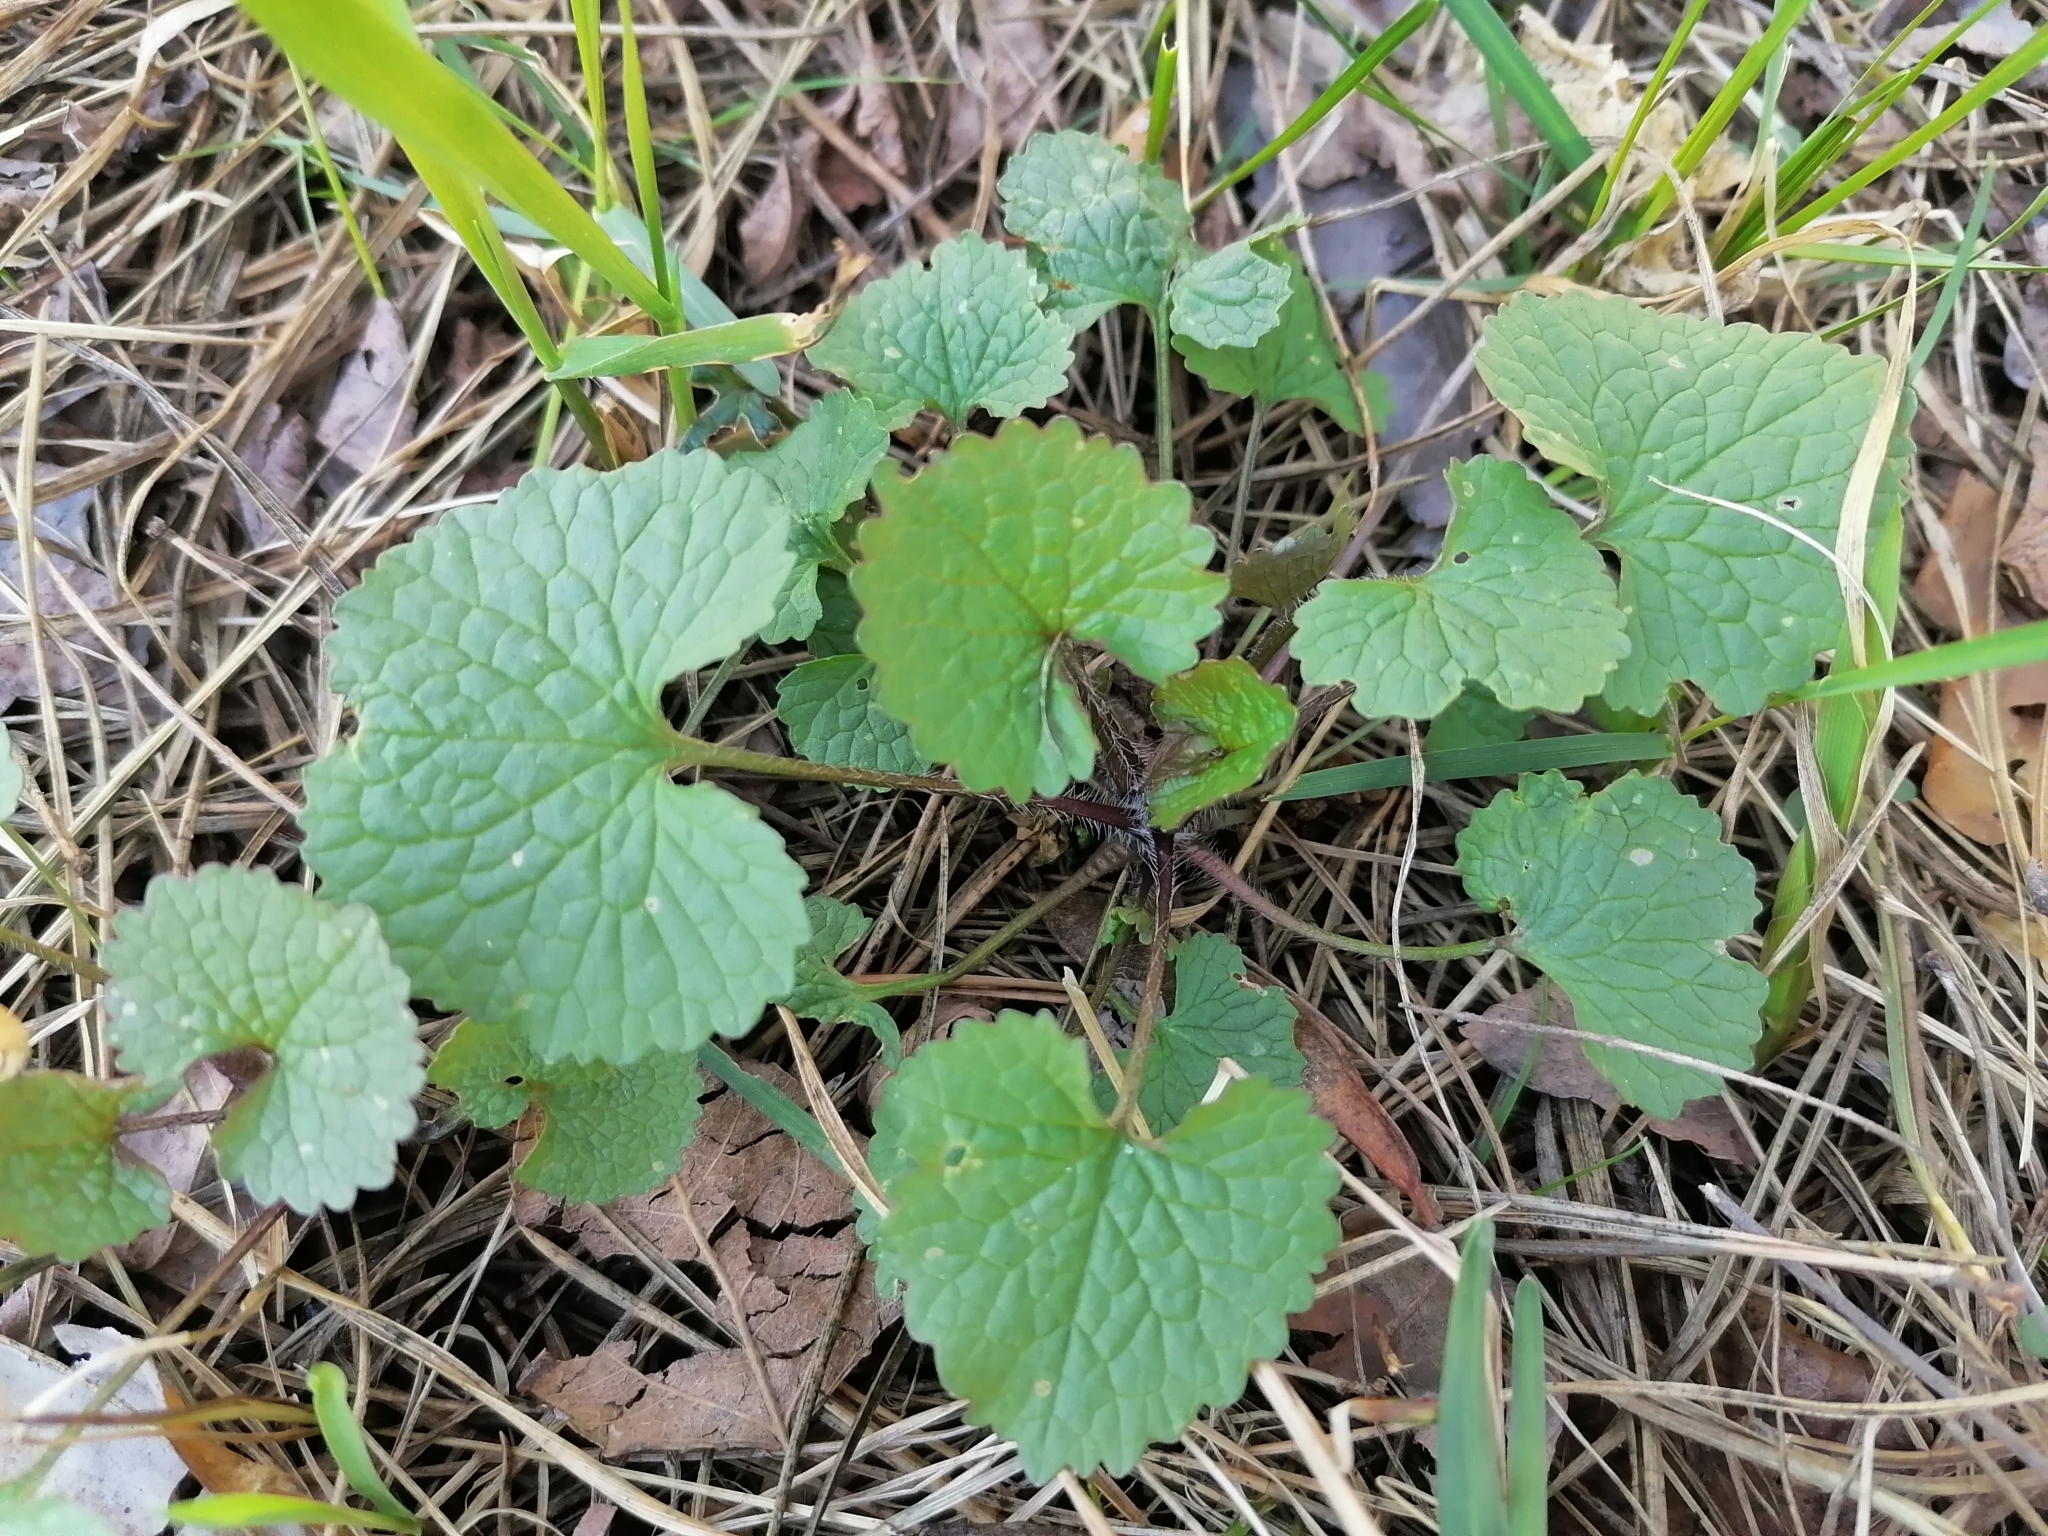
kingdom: Plantae
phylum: Tracheophyta
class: Magnoliopsida
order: Brassicales
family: Brassicaceae
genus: Alliaria
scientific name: Alliaria petiolata
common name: Garlic mustard
